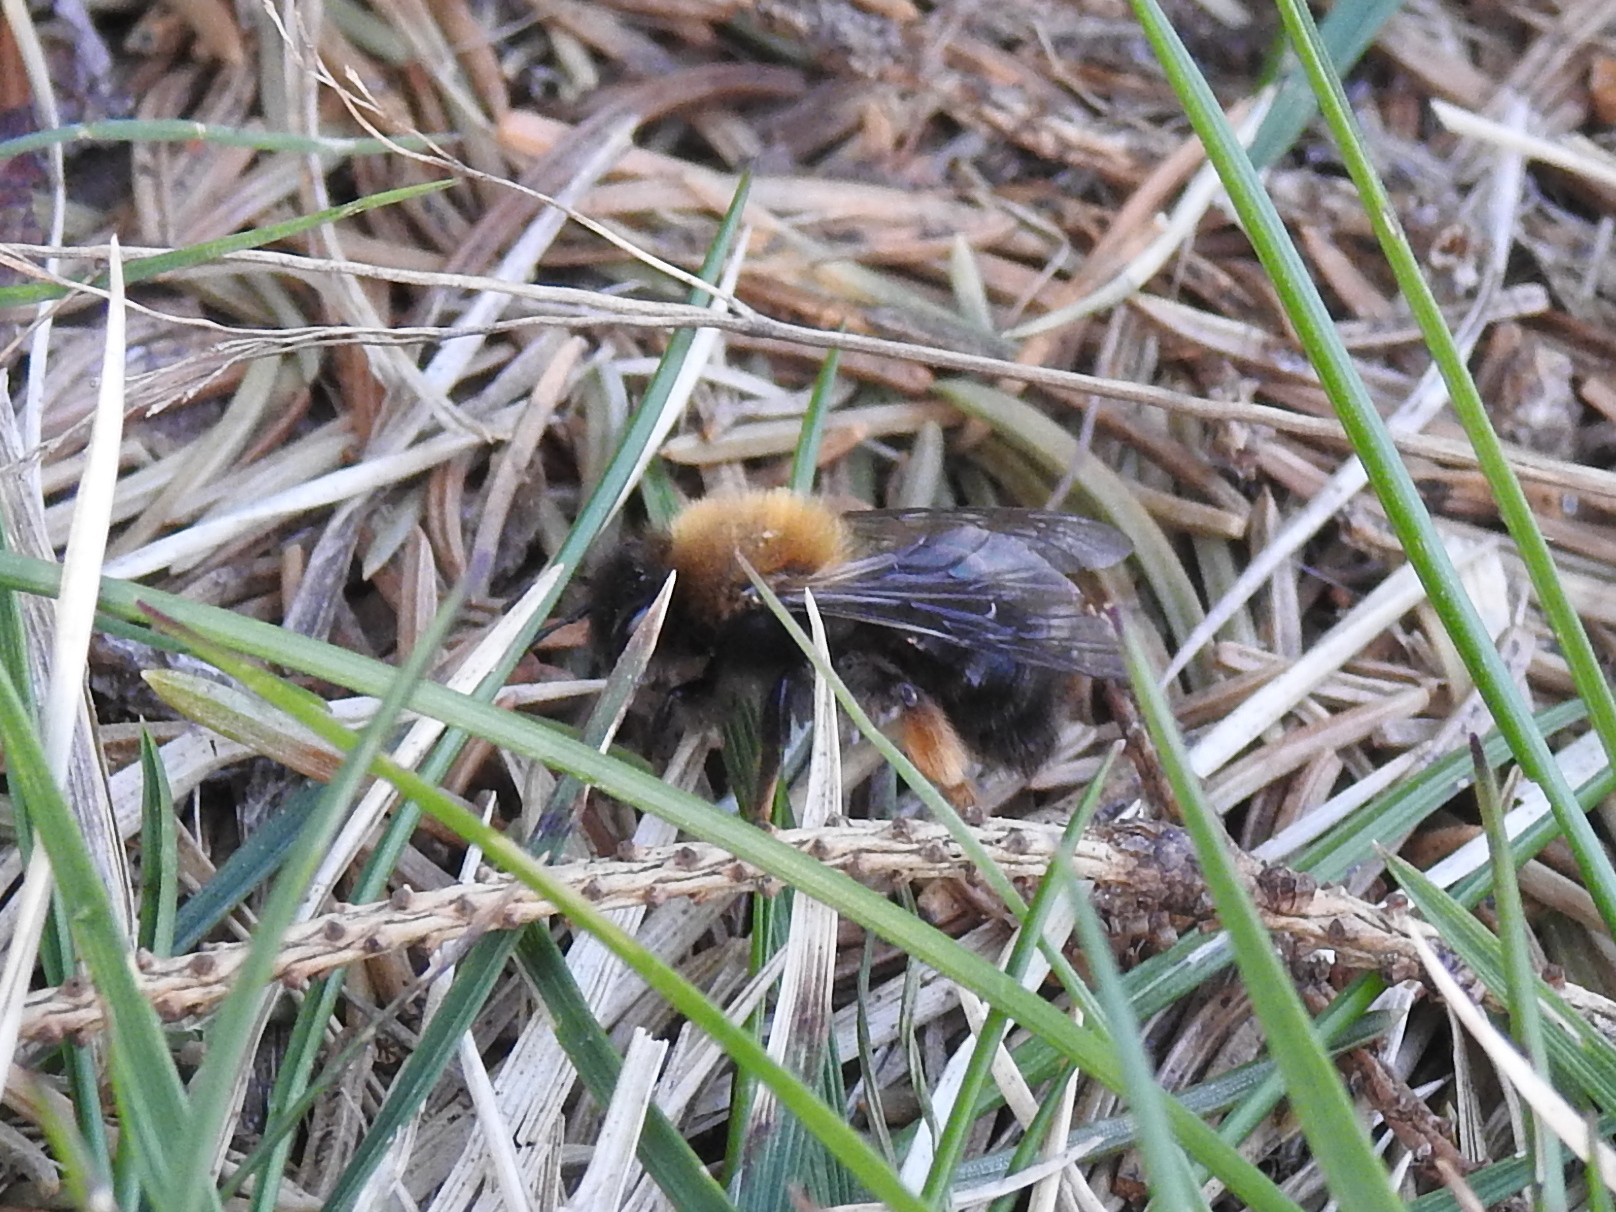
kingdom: Animalia
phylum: Arthropoda
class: Insecta
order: Hymenoptera
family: Andrenidae
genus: Andrena
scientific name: Andrena clarkella
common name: Clarke's mining bee
